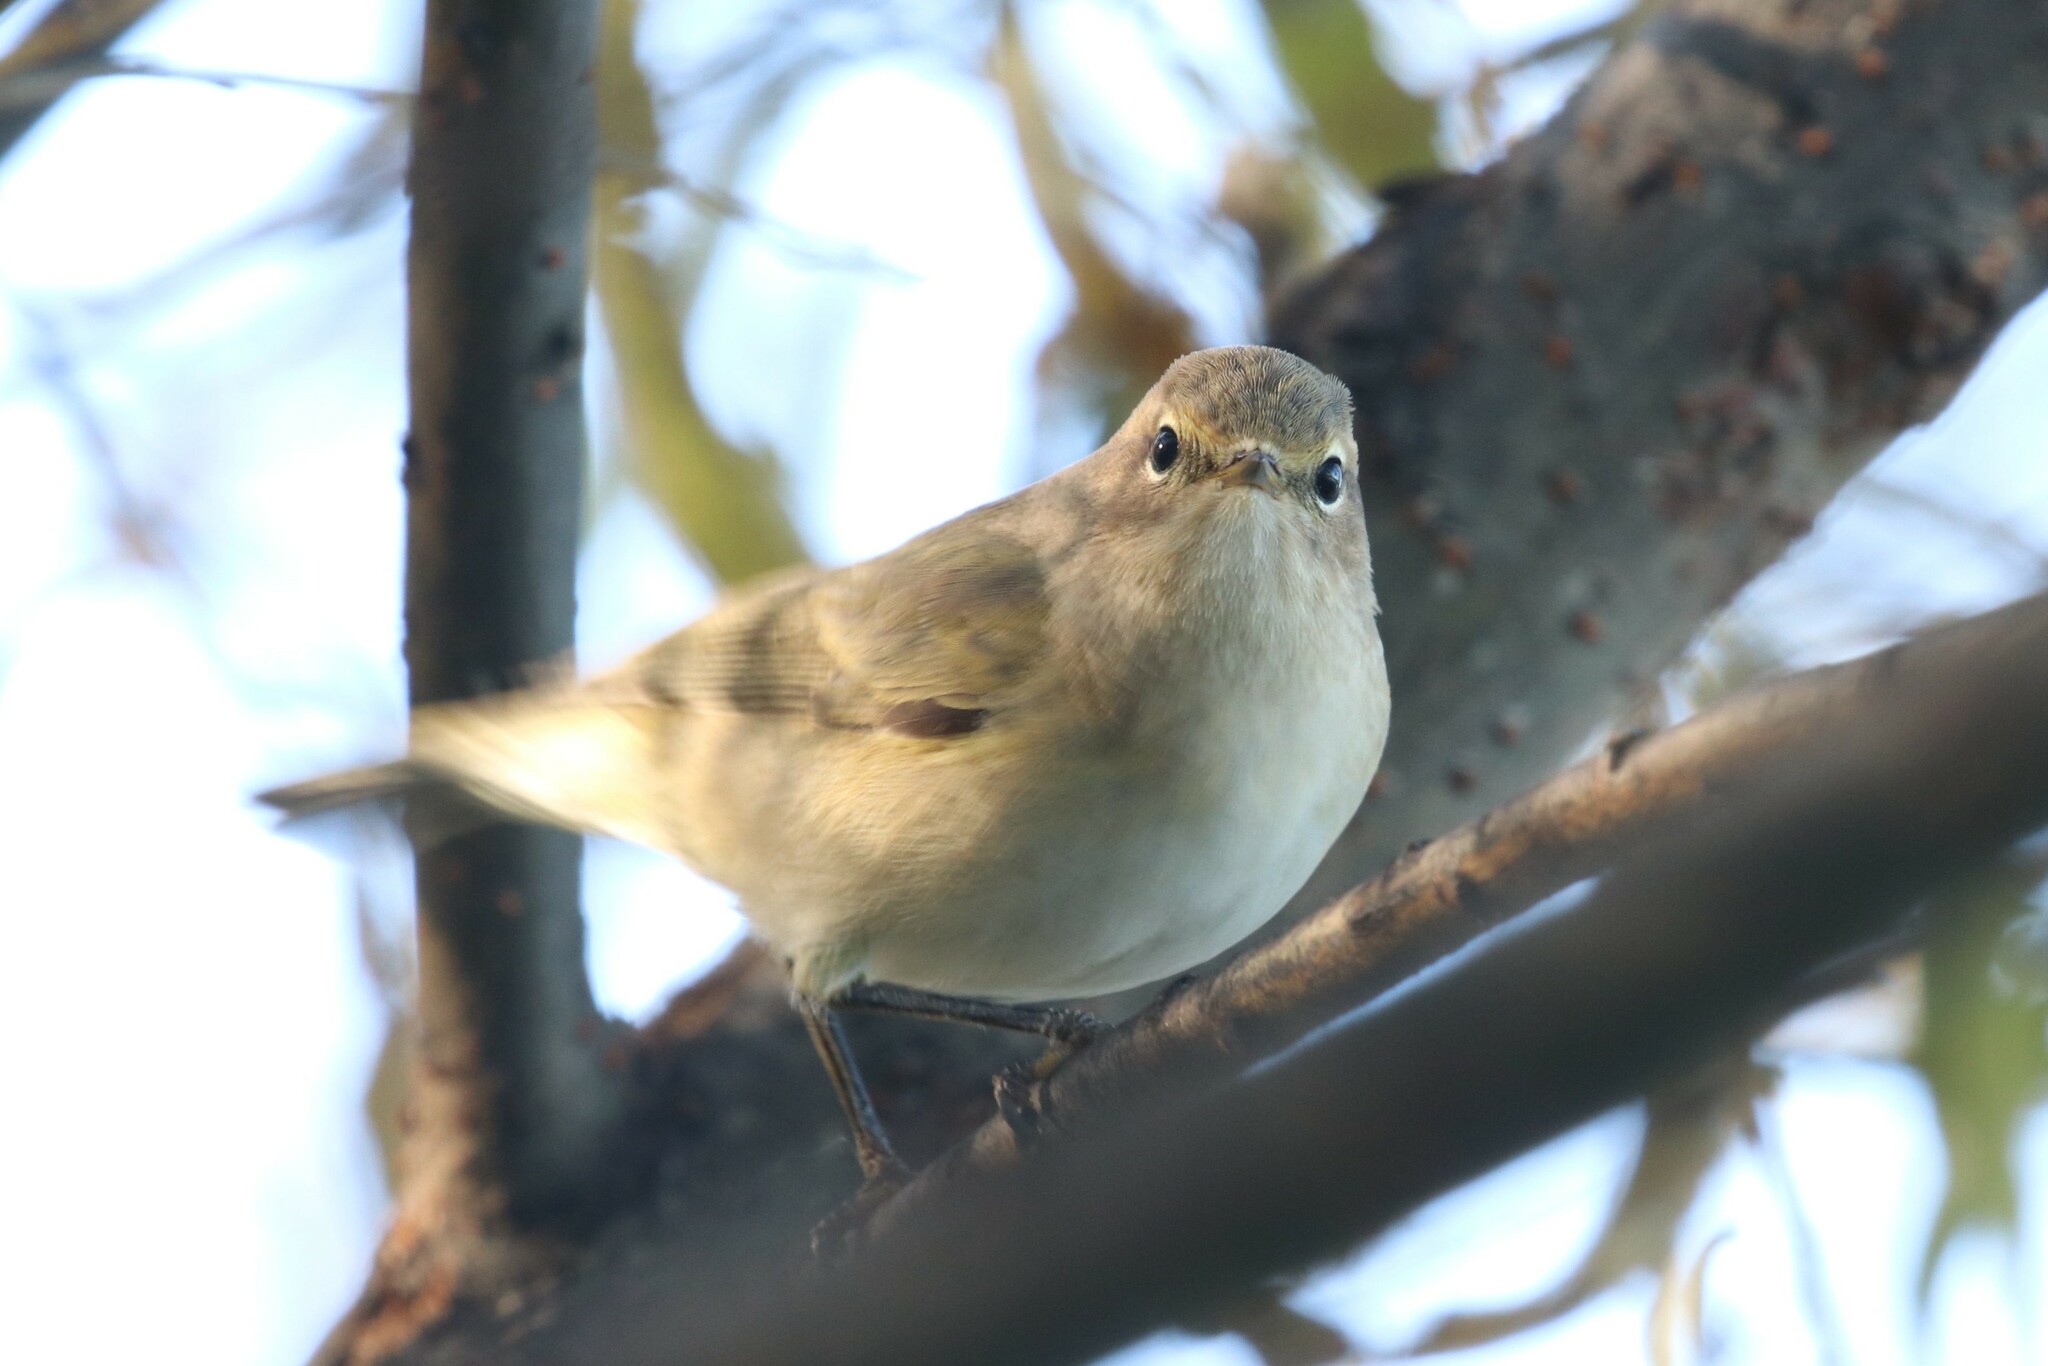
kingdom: Animalia
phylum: Chordata
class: Aves
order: Passeriformes
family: Phylloscopidae
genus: Phylloscopus
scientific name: Phylloscopus collybita
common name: Common chiffchaff
